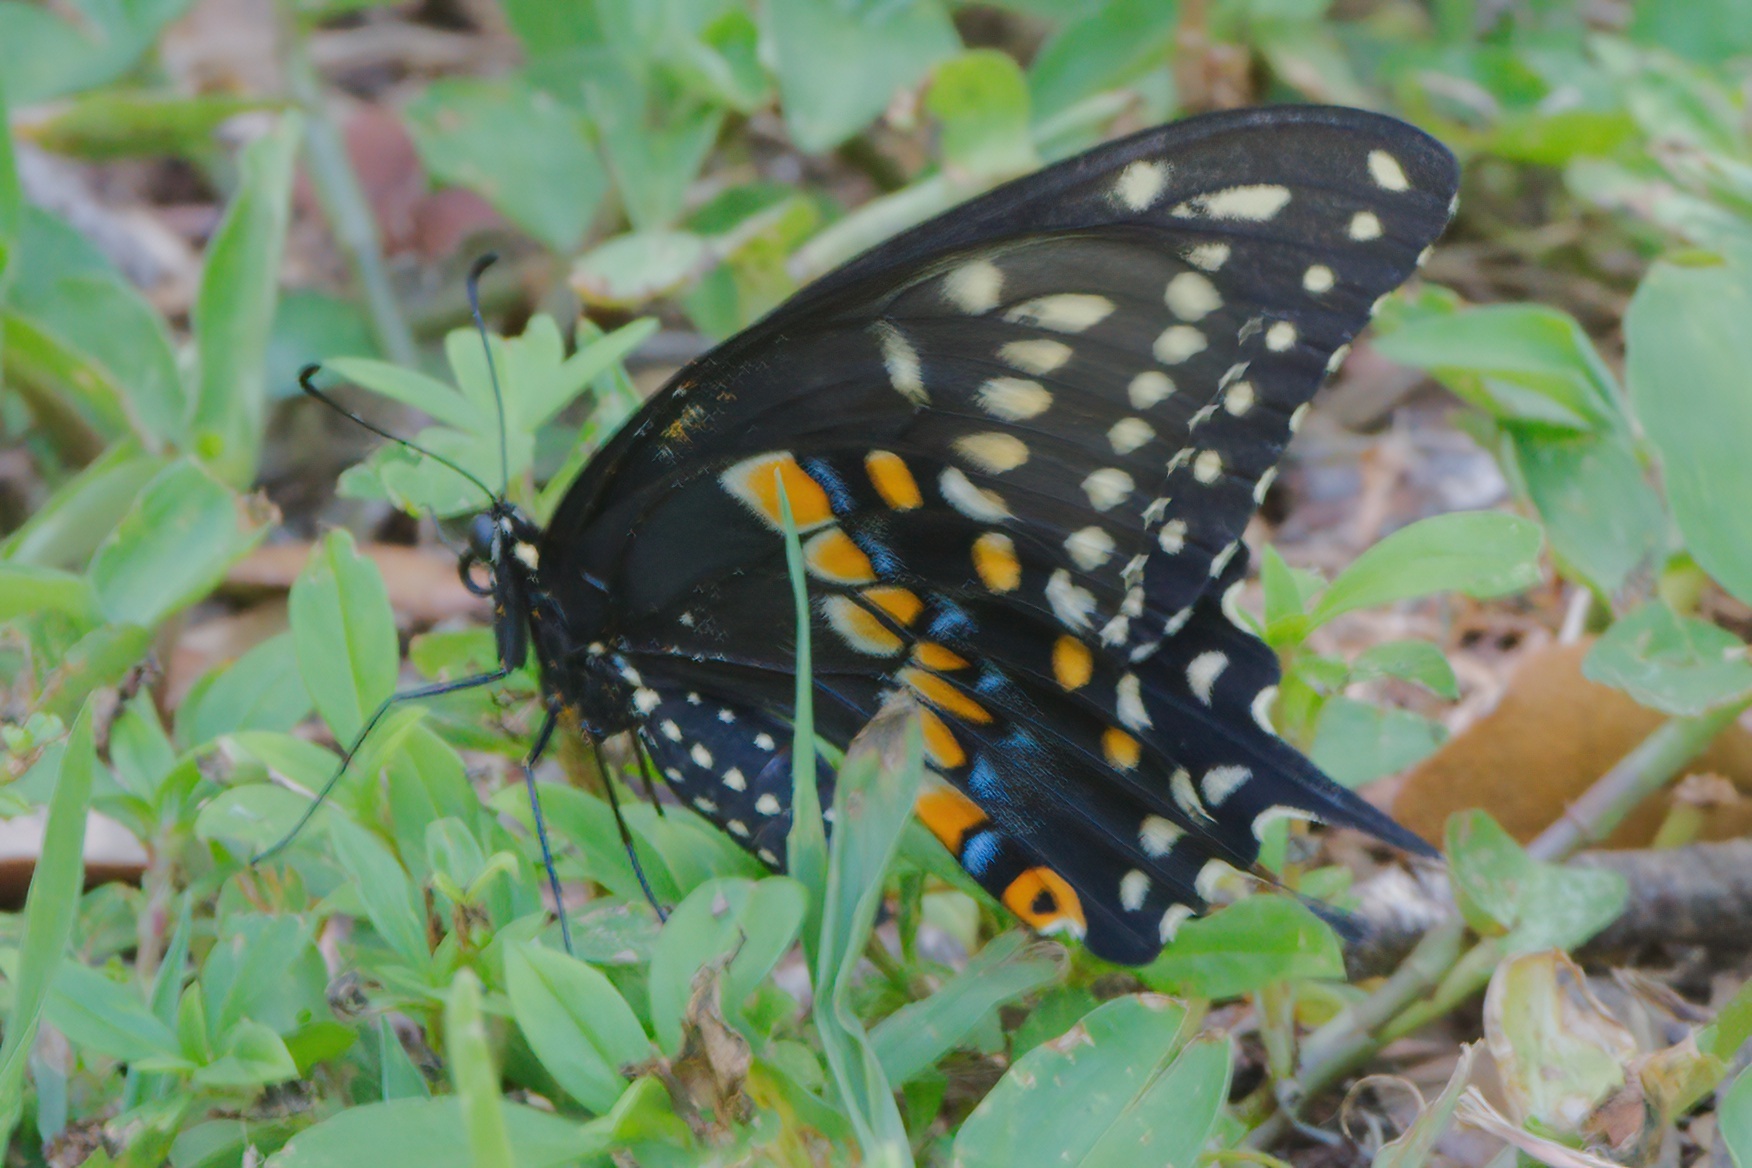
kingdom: Animalia
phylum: Arthropoda
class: Insecta
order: Lepidoptera
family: Papilionidae
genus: Papilio
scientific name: Papilio polyxenes
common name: Black swallowtail
